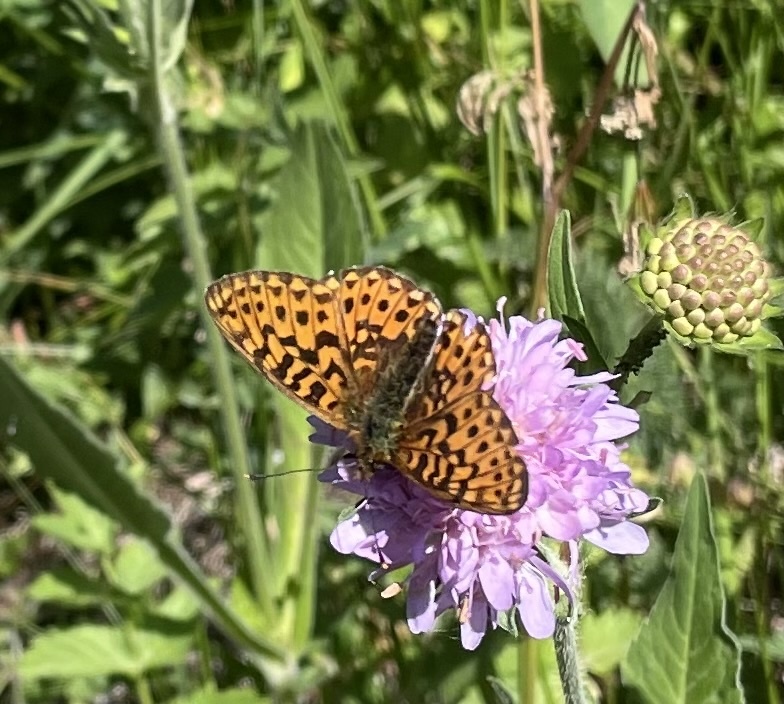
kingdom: Animalia
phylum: Arthropoda
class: Insecta
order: Lepidoptera
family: Nymphalidae
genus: Clossiana
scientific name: Clossiana euphrosyne
